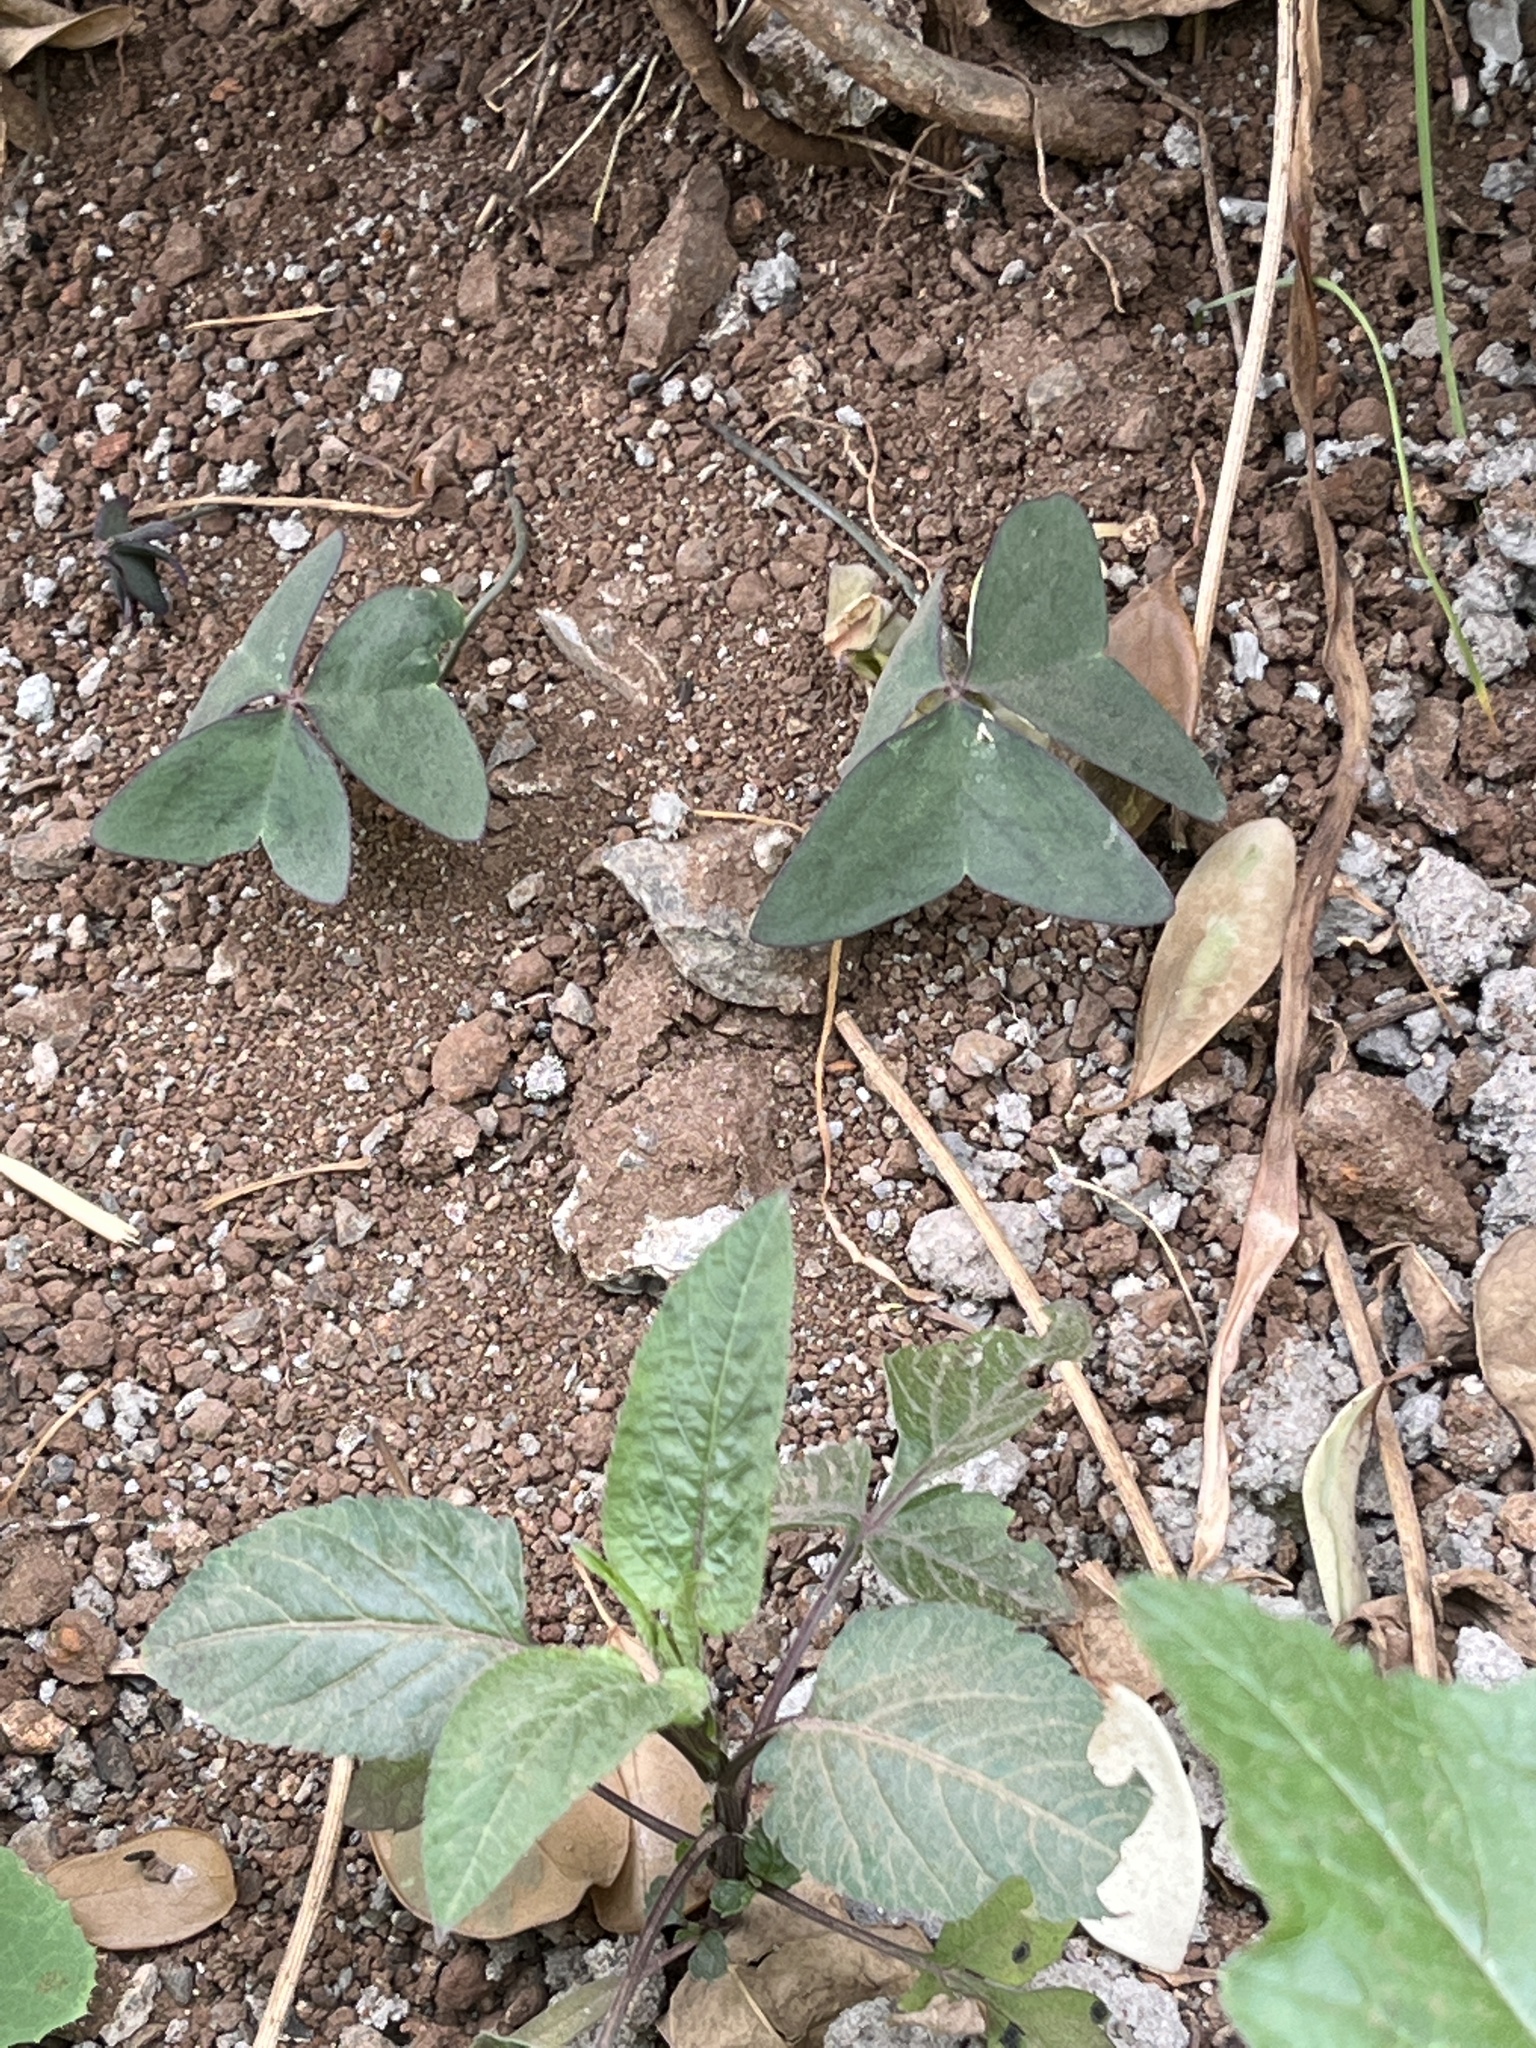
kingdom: Plantae
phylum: Tracheophyta
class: Magnoliopsida
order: Oxalidales
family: Oxalidaceae
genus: Oxalis
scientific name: Oxalis latifolia
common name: Garden pink-sorrel
